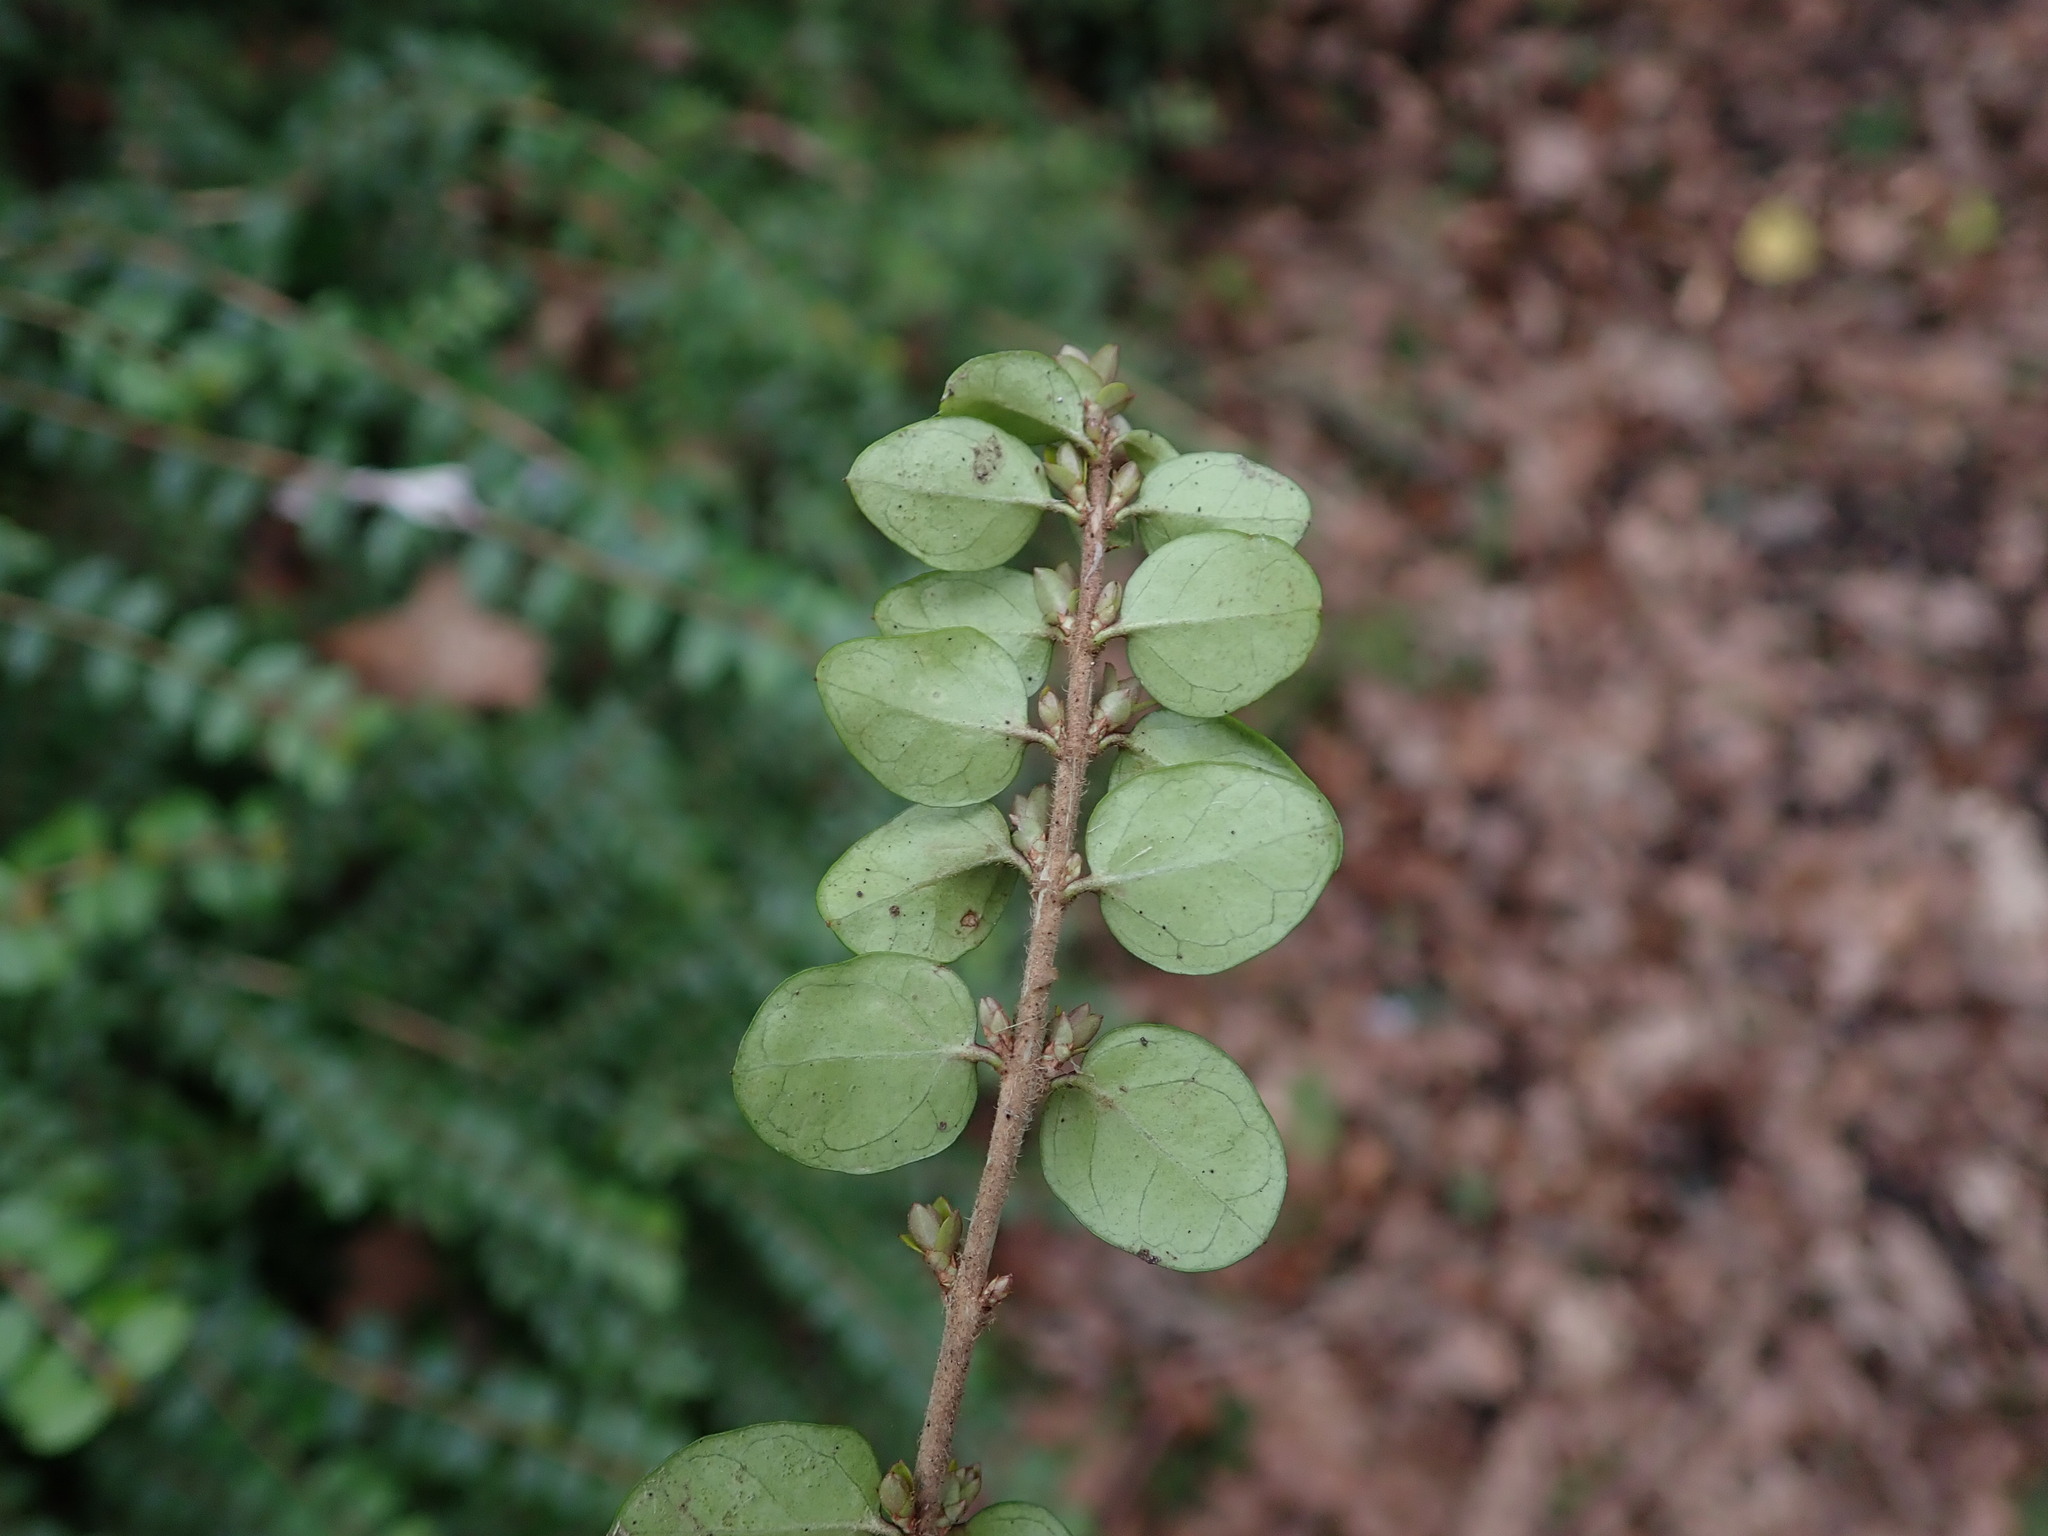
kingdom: Plantae
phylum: Tracheophyta
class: Magnoliopsida
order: Dipsacales
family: Caprifoliaceae
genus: Lonicera
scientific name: Lonicera ligustrina
